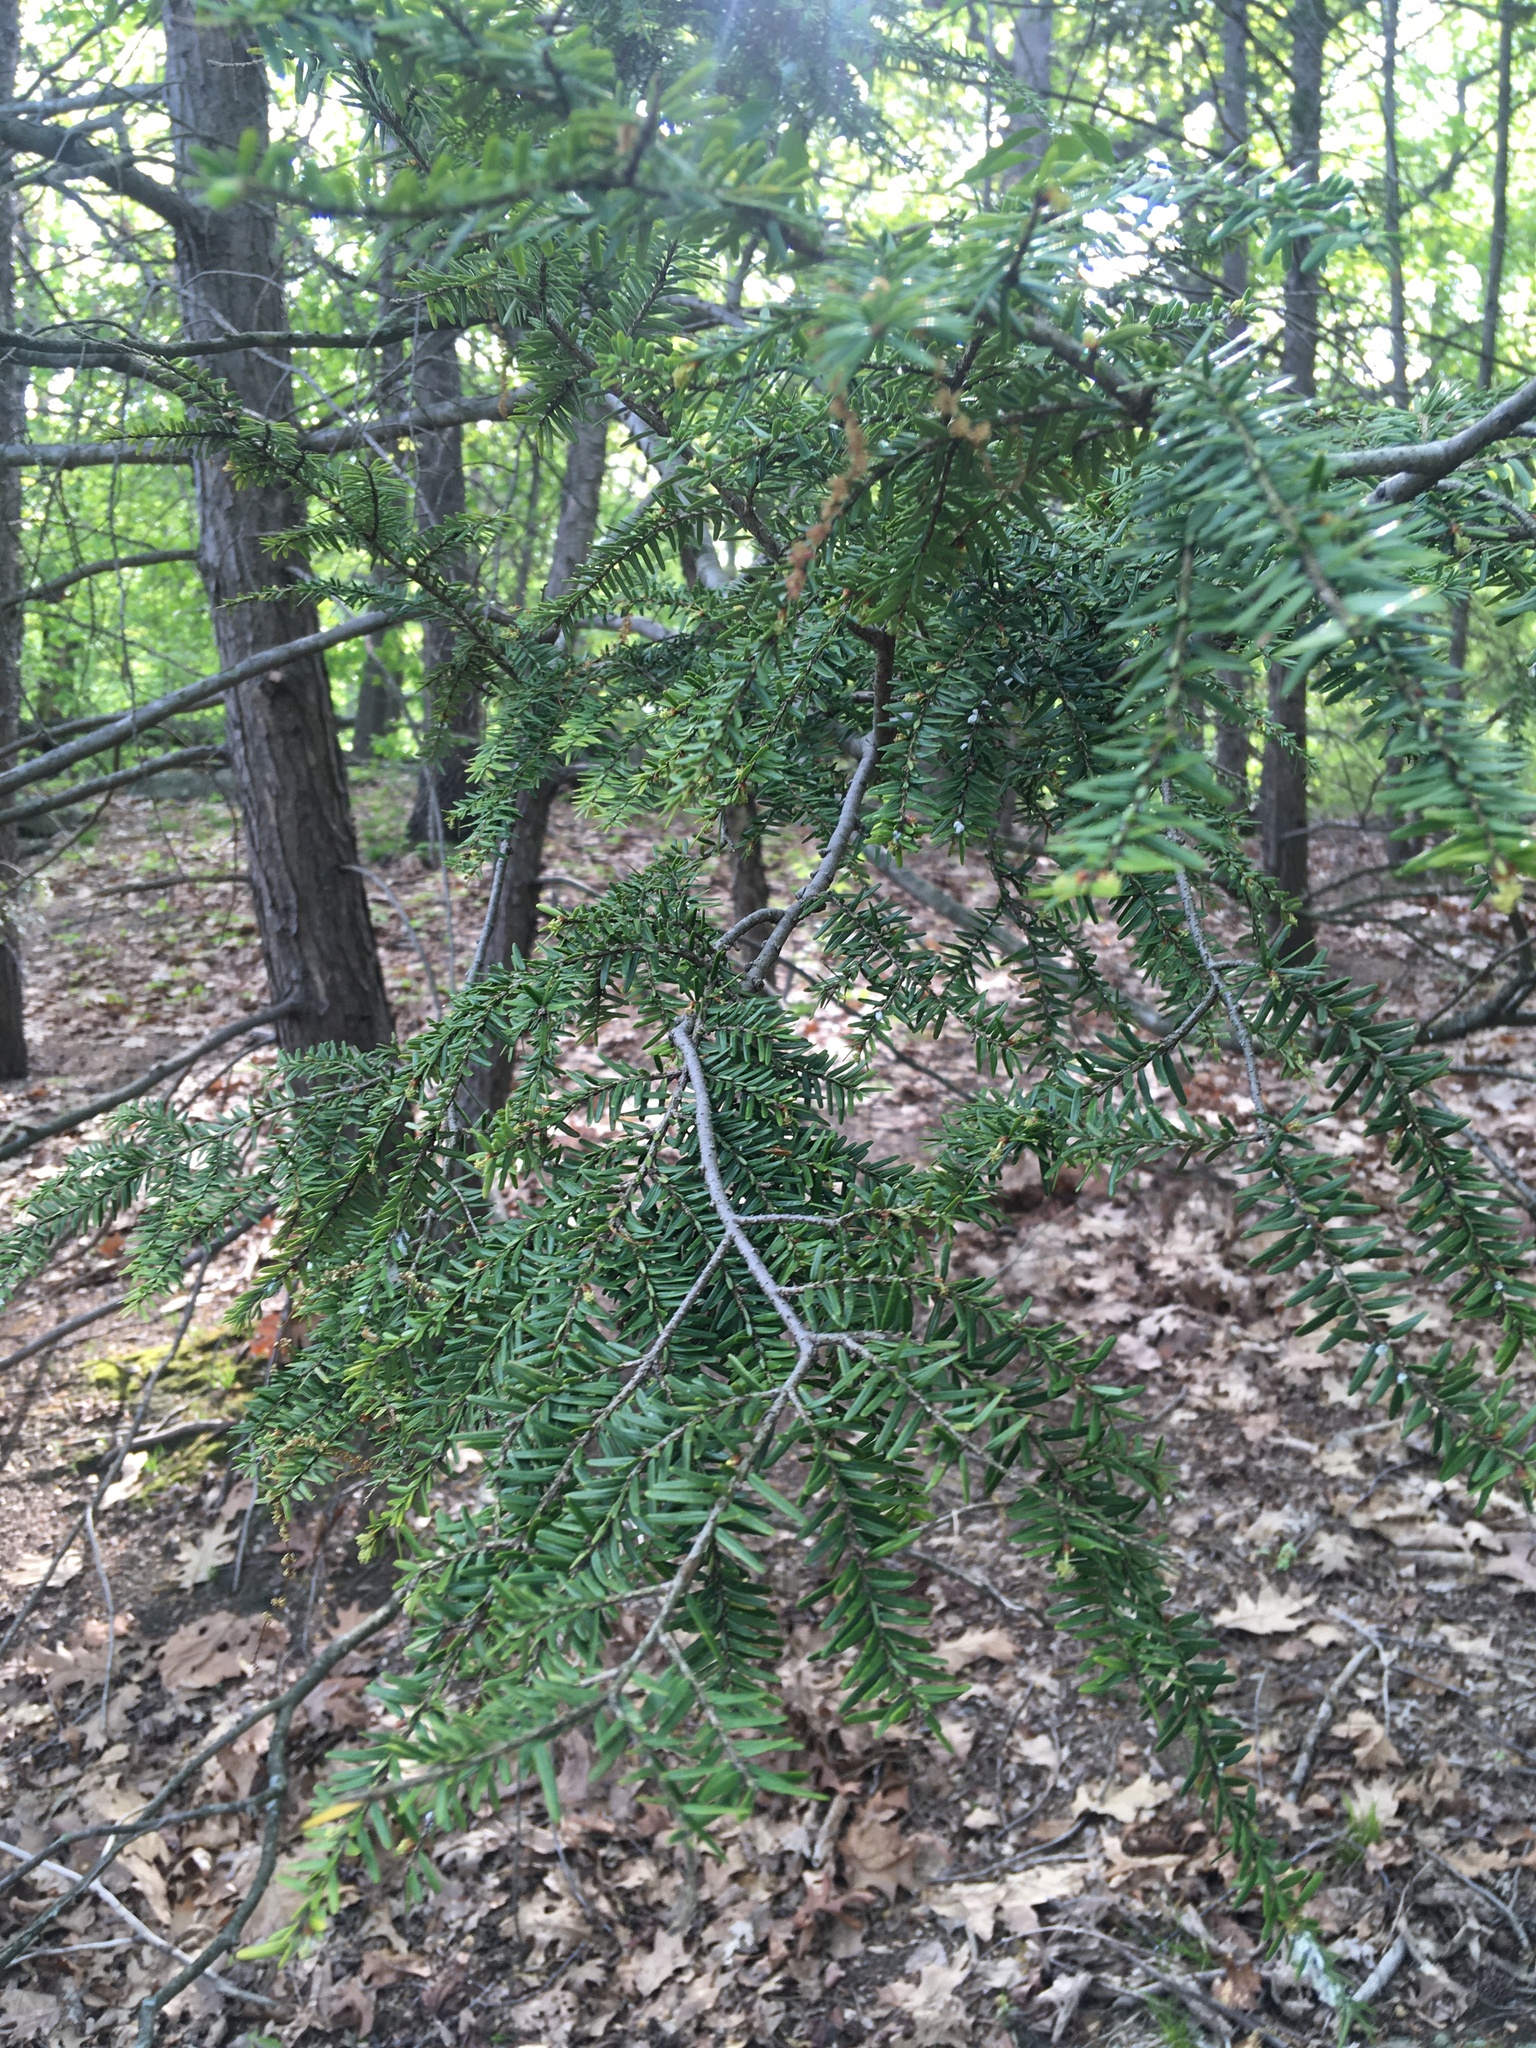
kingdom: Plantae
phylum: Tracheophyta
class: Pinopsida
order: Pinales
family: Pinaceae
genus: Tsuga
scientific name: Tsuga canadensis
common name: Eastern hemlock
